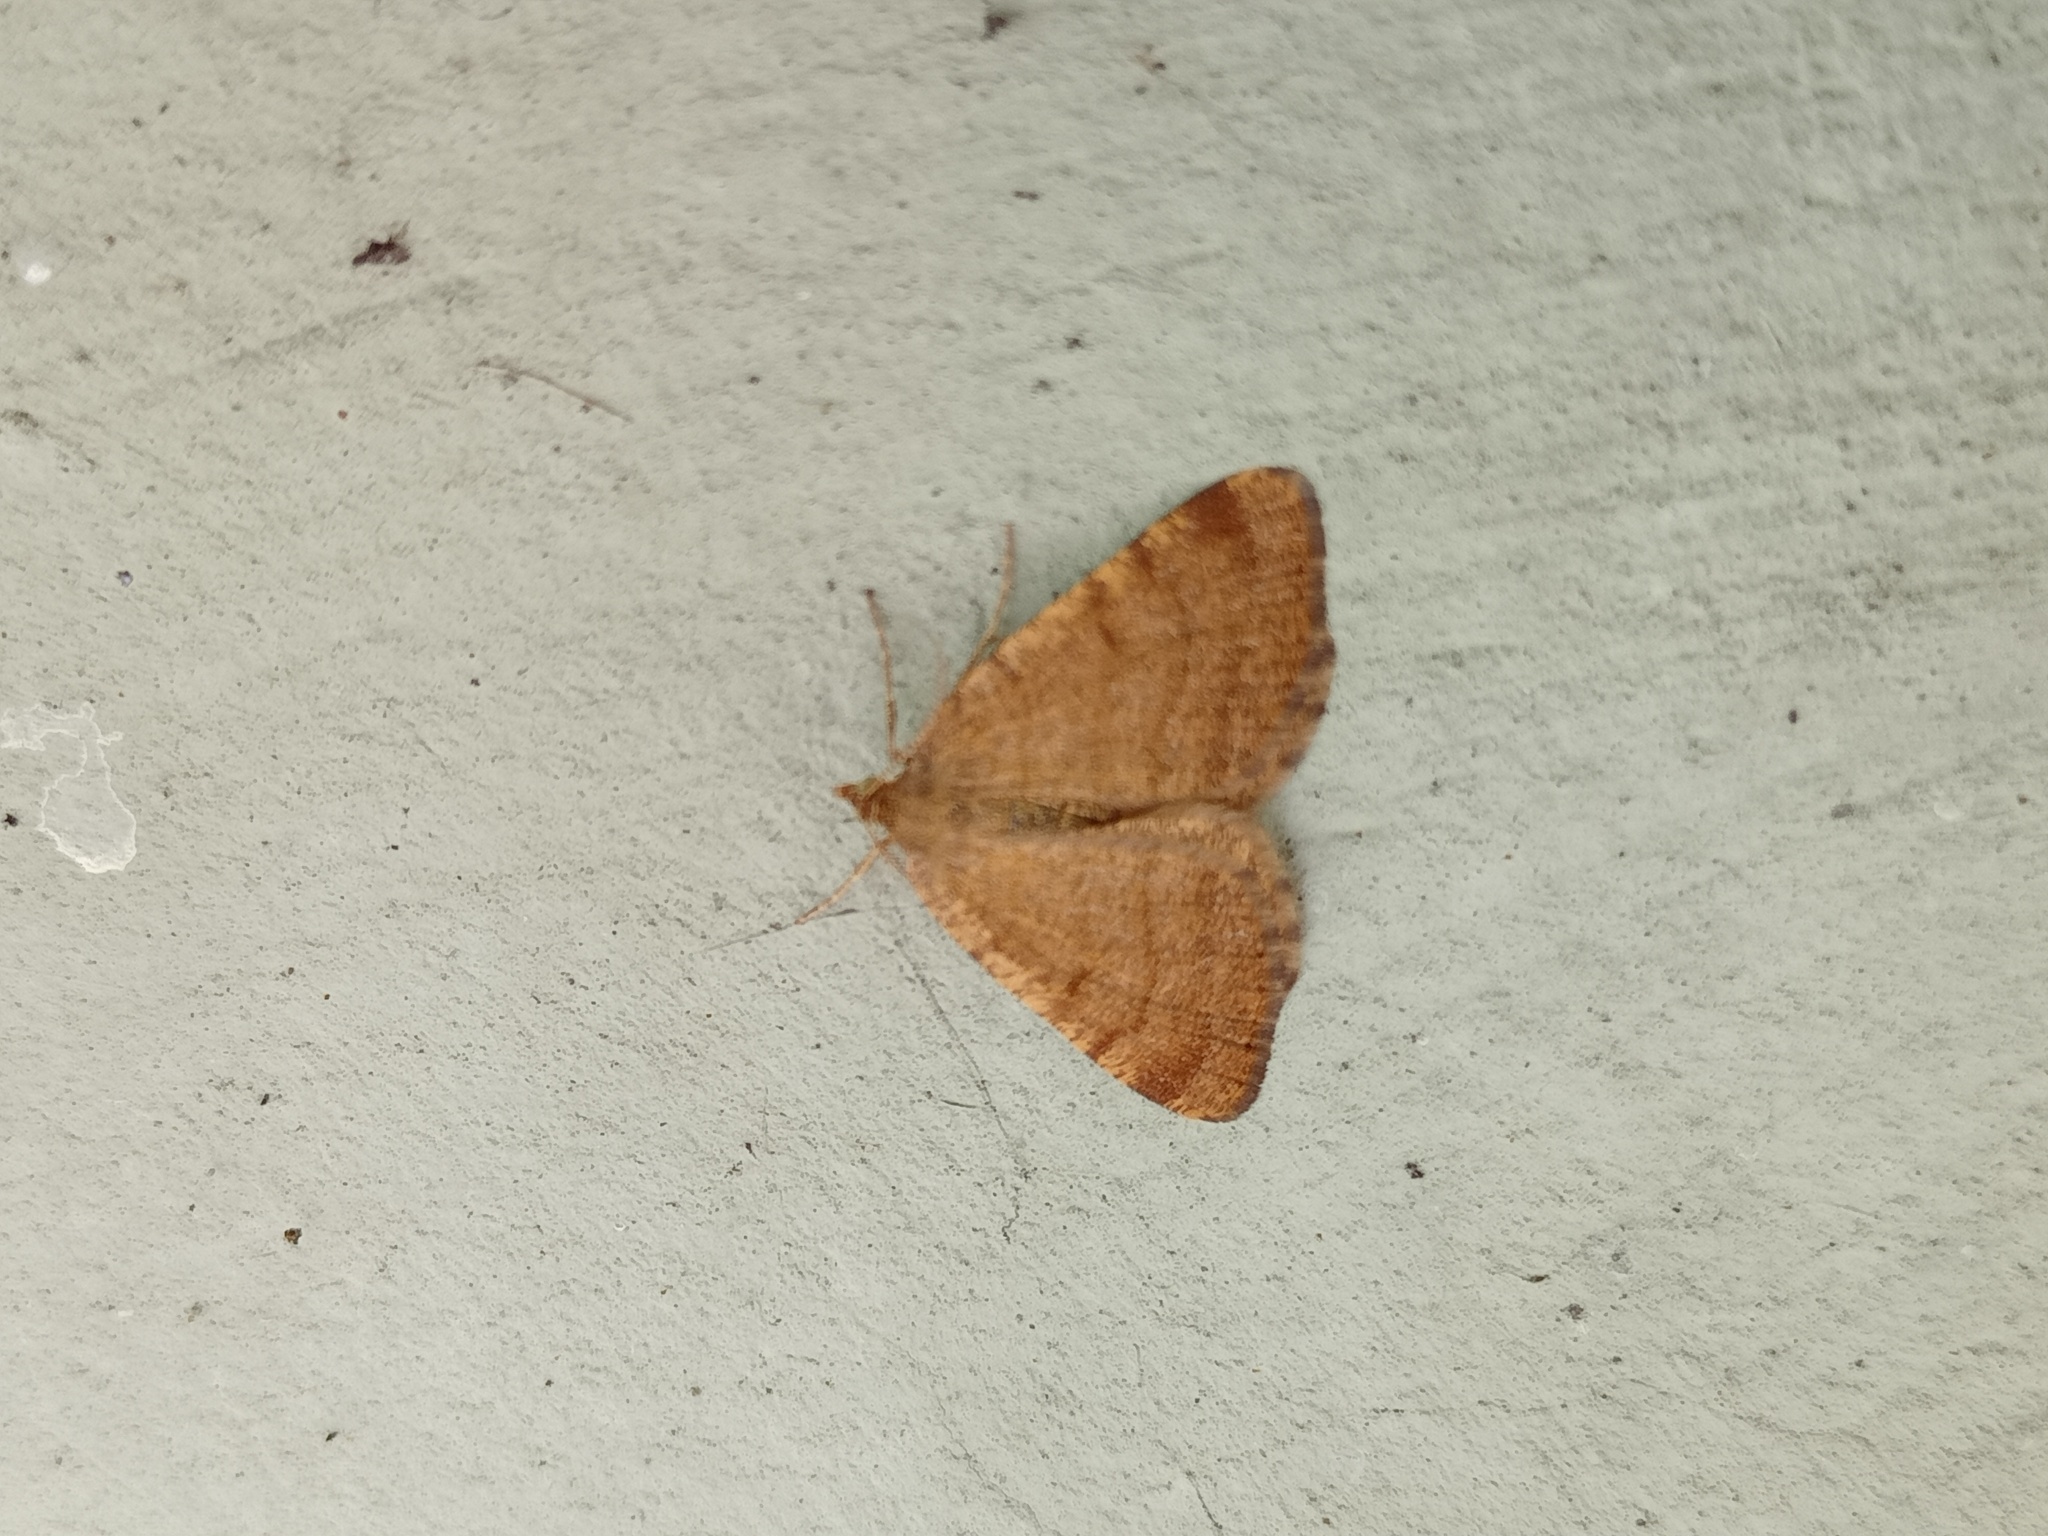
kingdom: Animalia
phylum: Arthropoda
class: Insecta
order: Lepidoptera
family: Geometridae
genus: Macaria
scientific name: Macaria brunneata
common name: Rannoch looper
